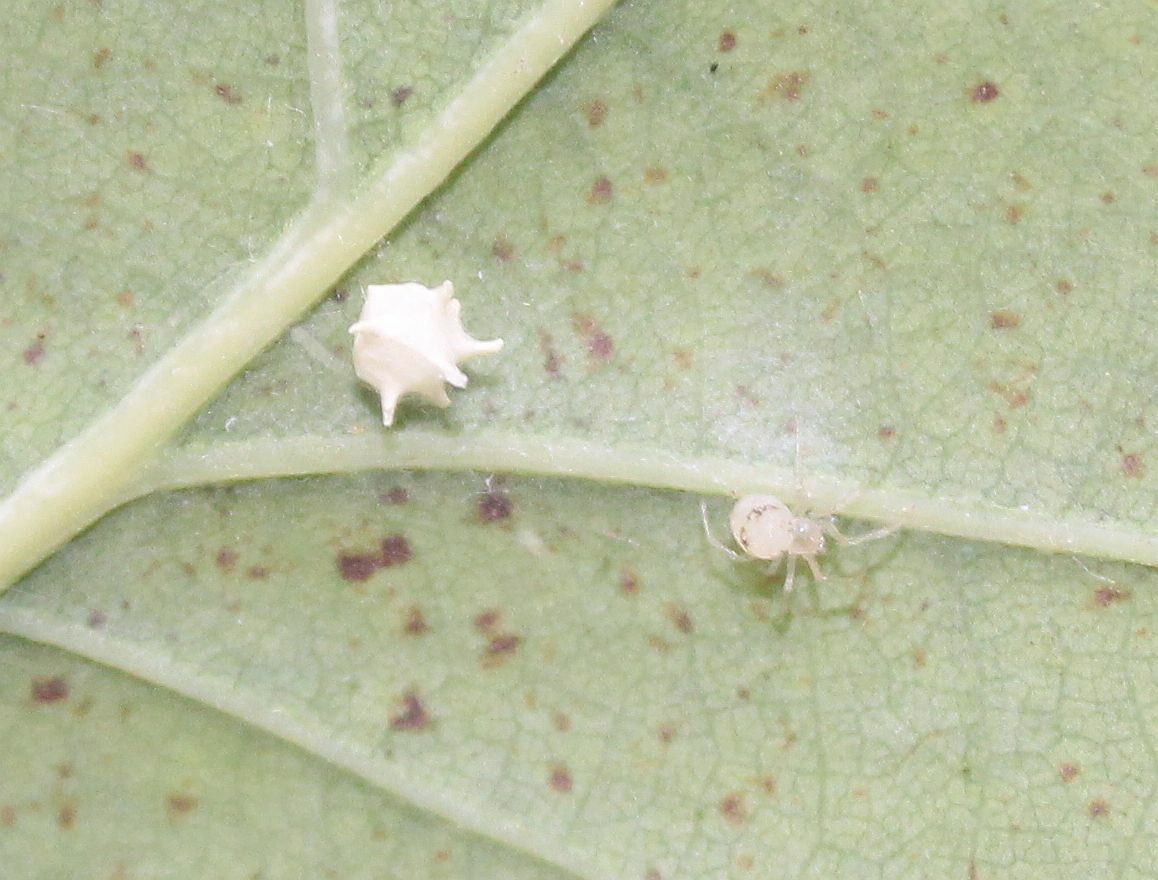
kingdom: Animalia
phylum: Arthropoda
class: Arachnida
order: Araneae
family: Theridiidae
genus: Paidiscura
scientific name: Paidiscura pallens
